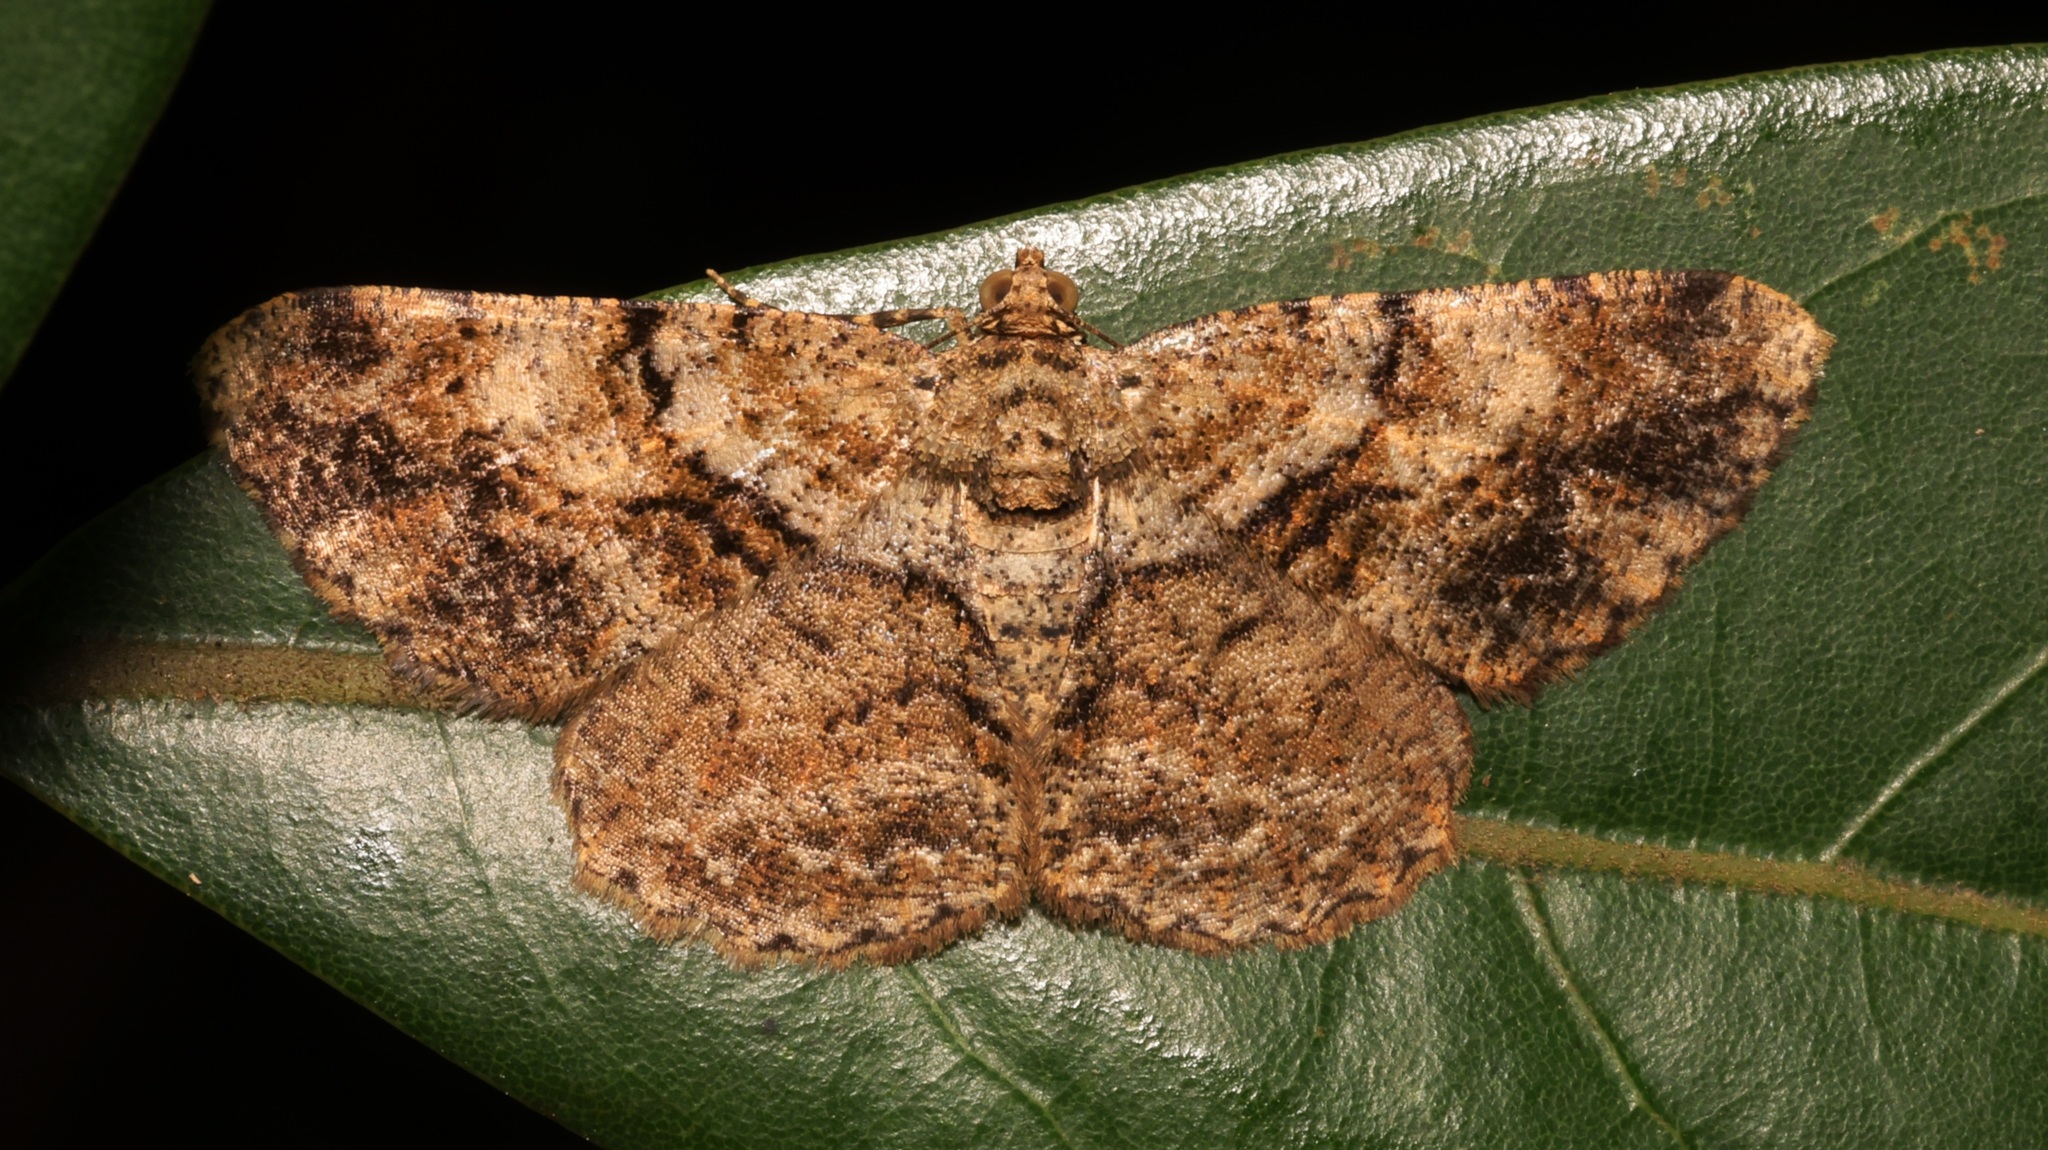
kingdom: Animalia
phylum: Arthropoda
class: Insecta
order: Lepidoptera
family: Geometridae
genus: Psilalcis
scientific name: Psilalcis galsworthyi
